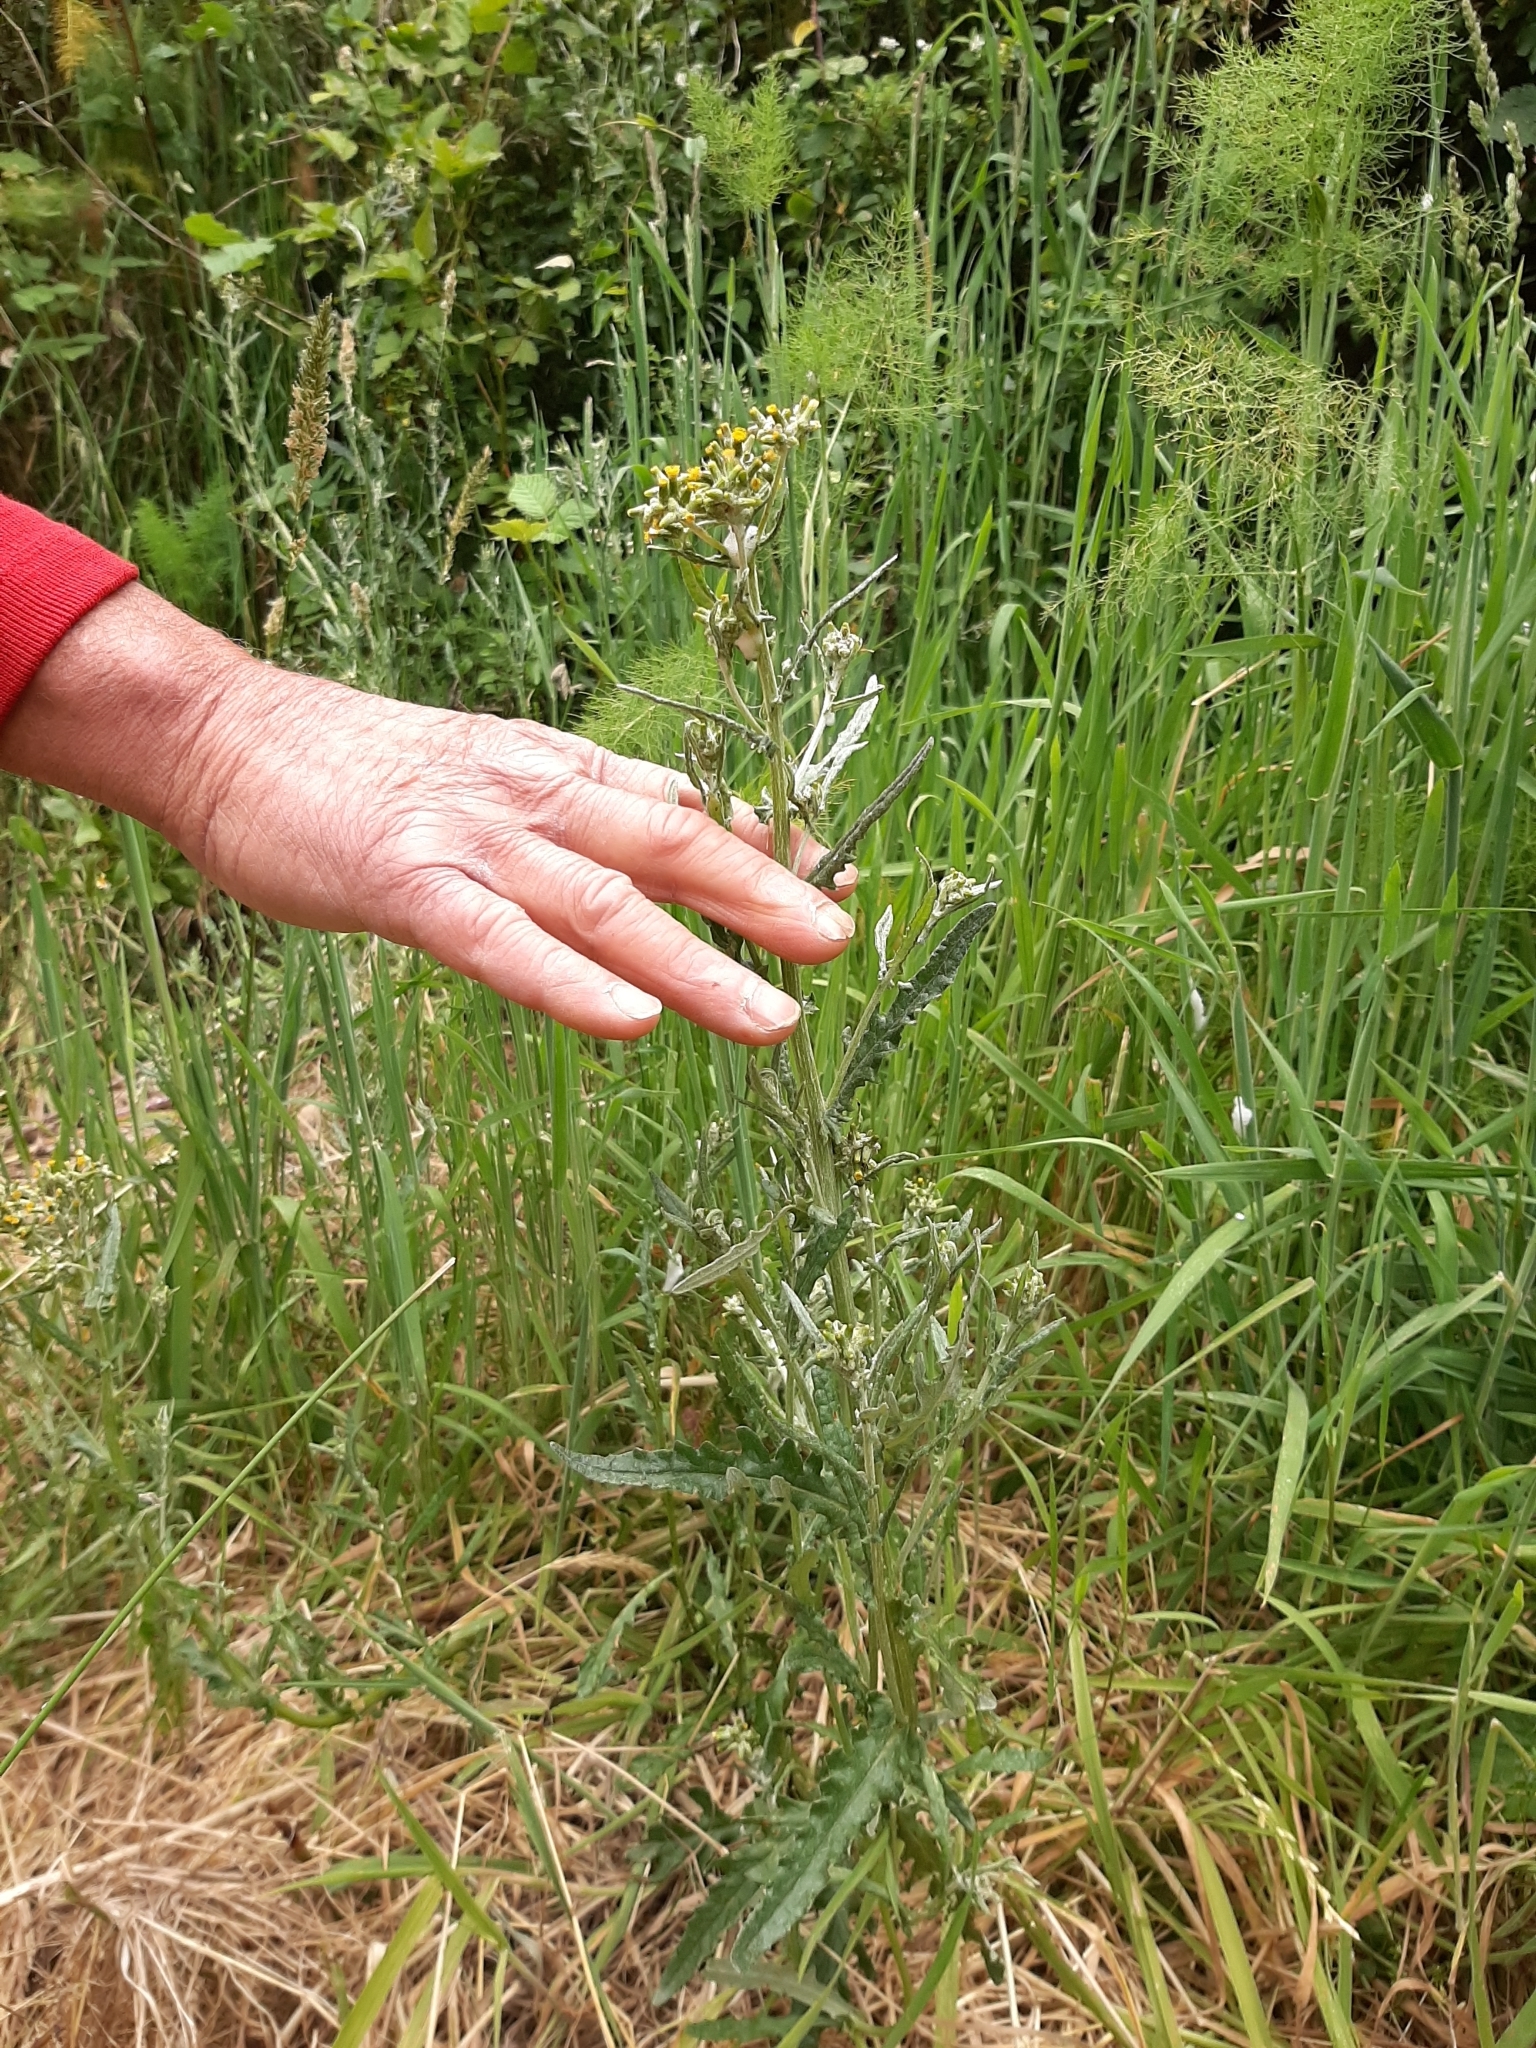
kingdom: Plantae
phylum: Tracheophyta
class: Magnoliopsida
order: Asterales
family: Asteraceae
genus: Senecio
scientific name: Senecio glomeratus
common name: Cutleaf burnweed
